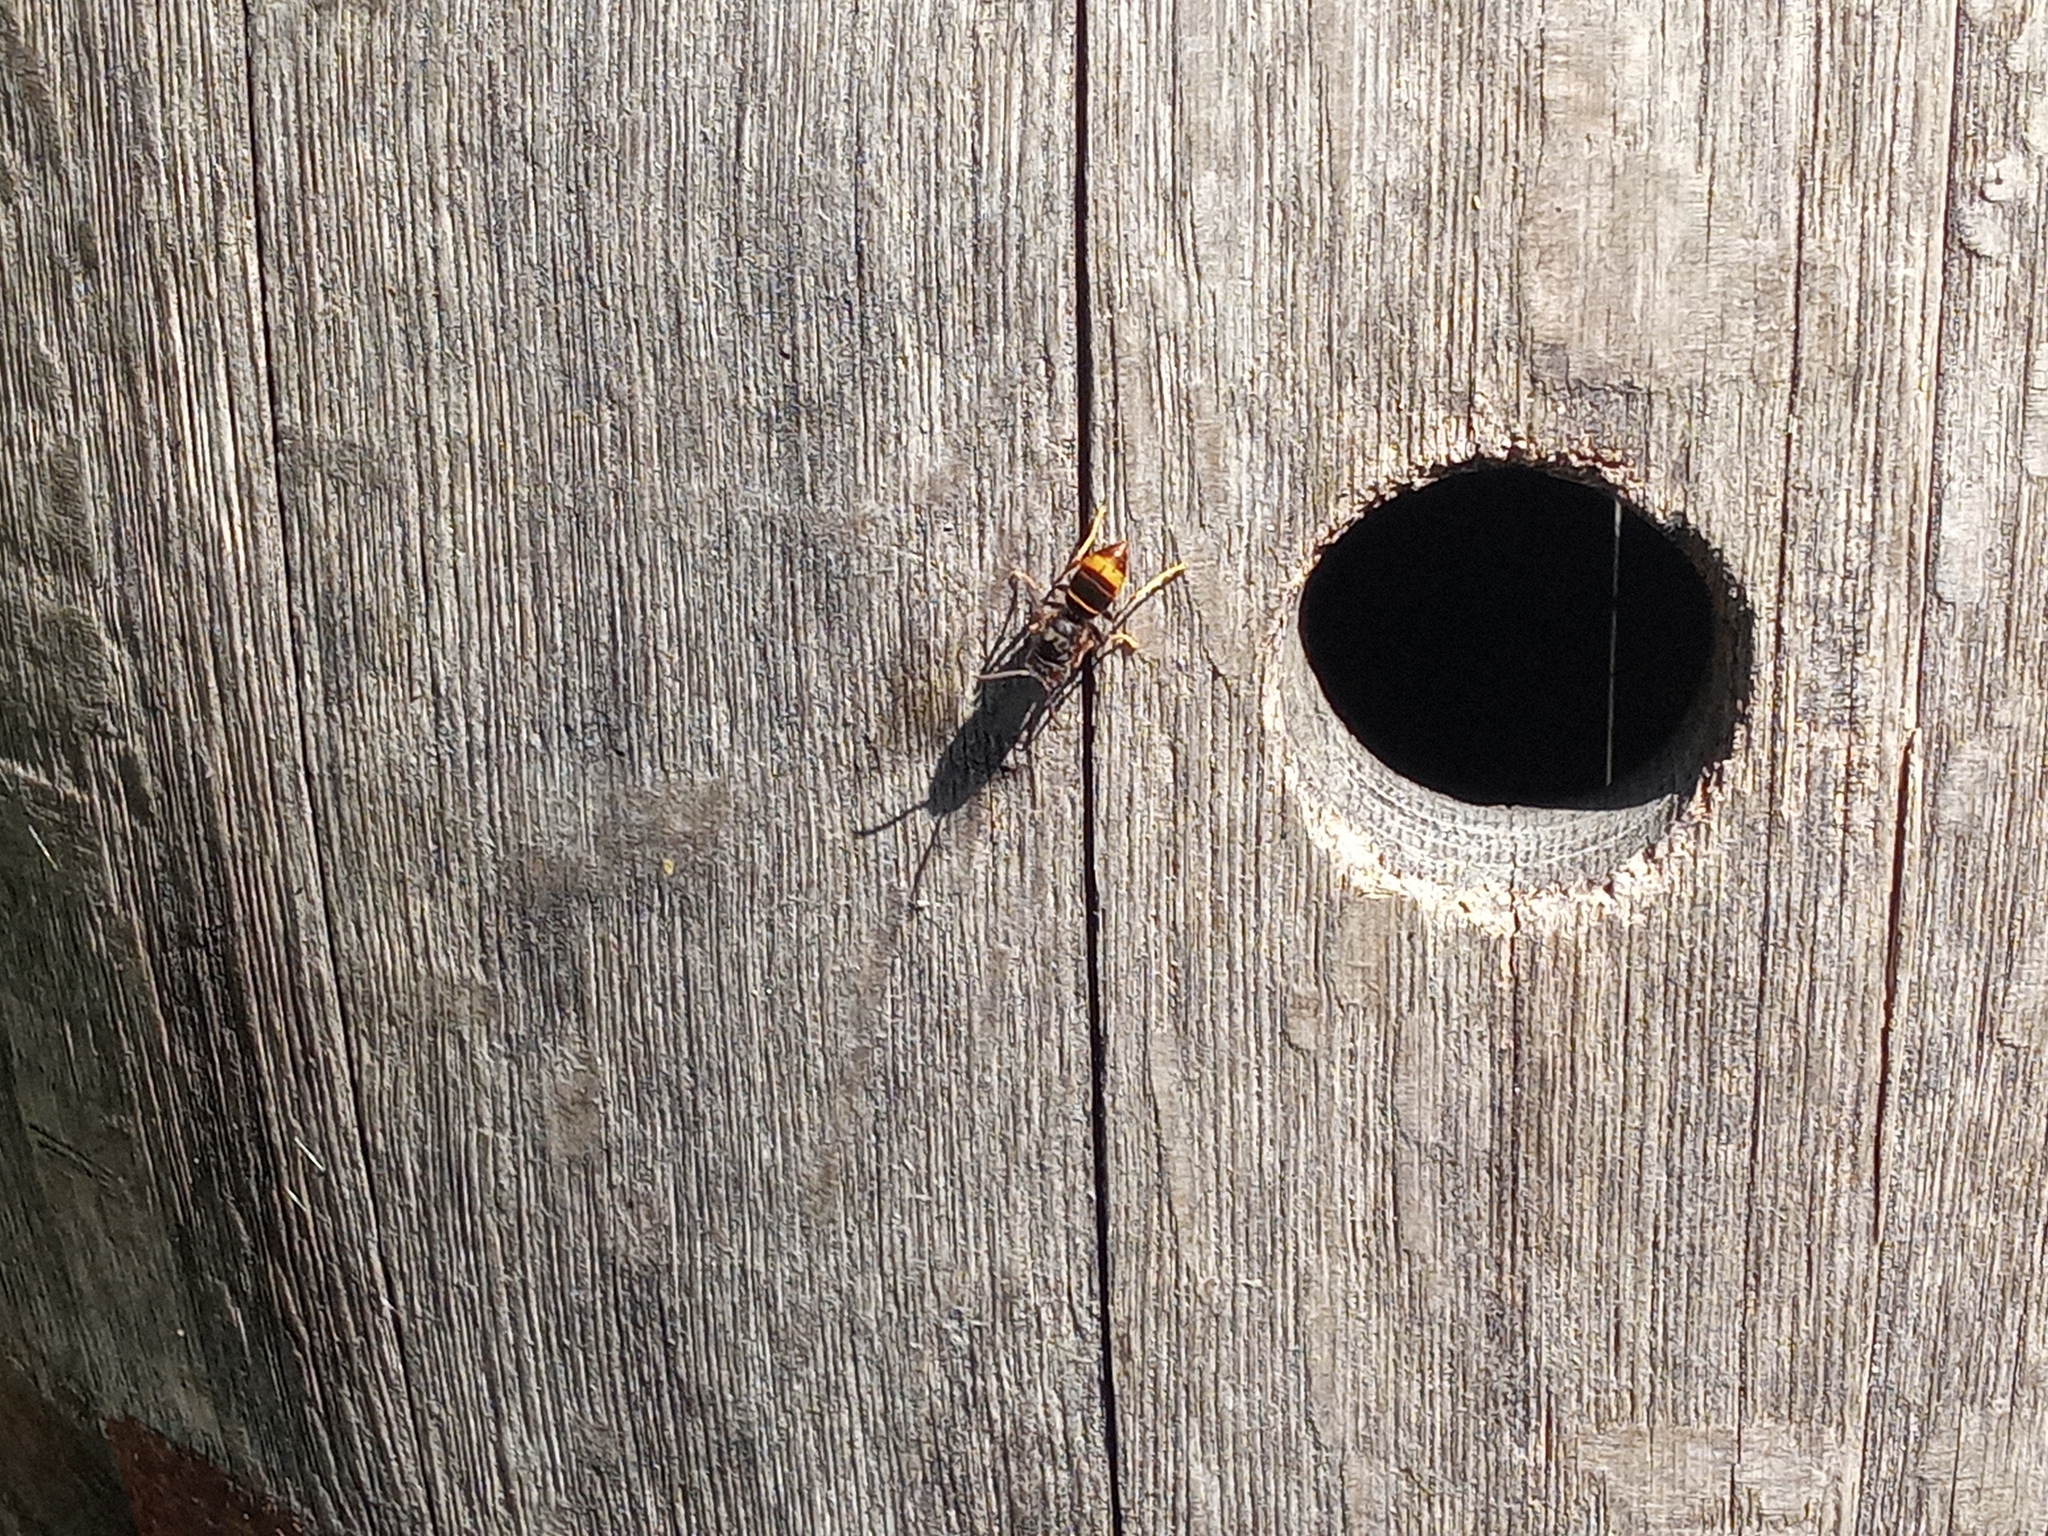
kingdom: Animalia
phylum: Arthropoda
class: Insecta
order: Hymenoptera
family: Vespidae
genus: Vespa
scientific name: Vespa velutina
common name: Asian hornet
